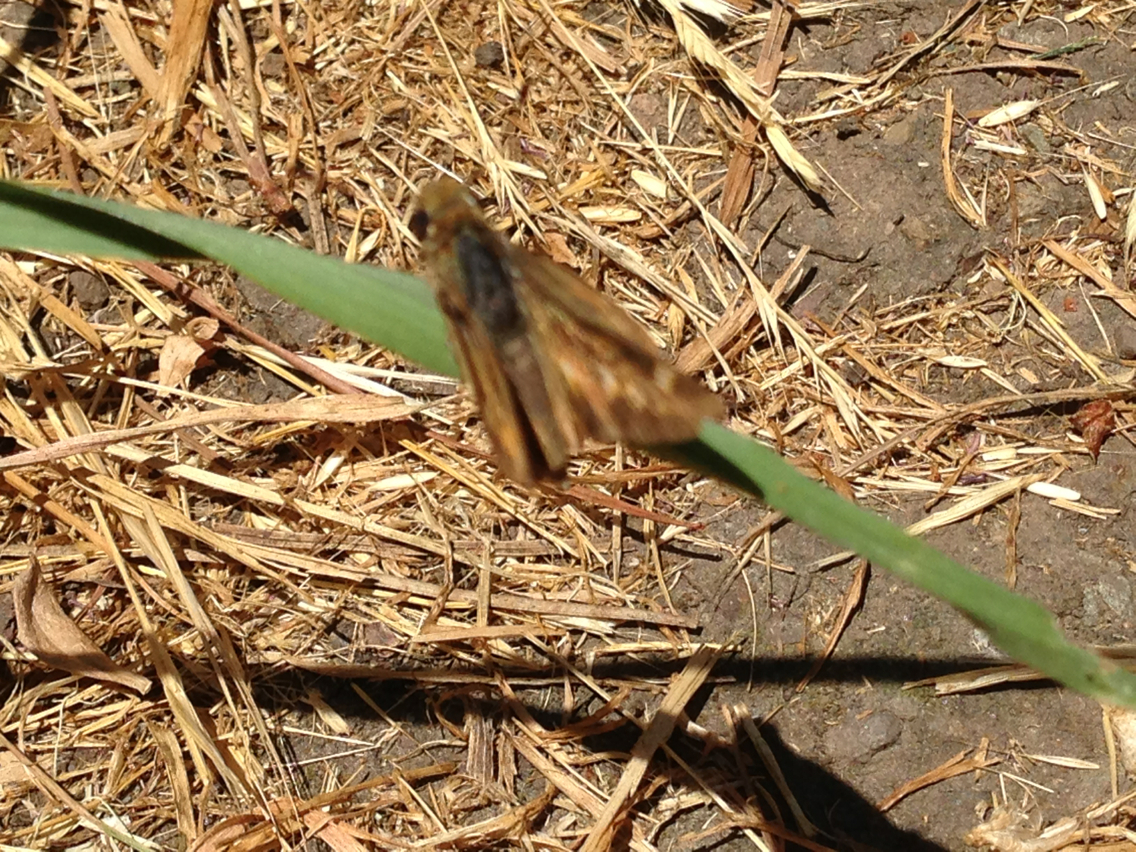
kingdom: Animalia
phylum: Arthropoda
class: Insecta
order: Lepidoptera
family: Hesperiidae
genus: Lon
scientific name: Lon melane
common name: Umber skipper
